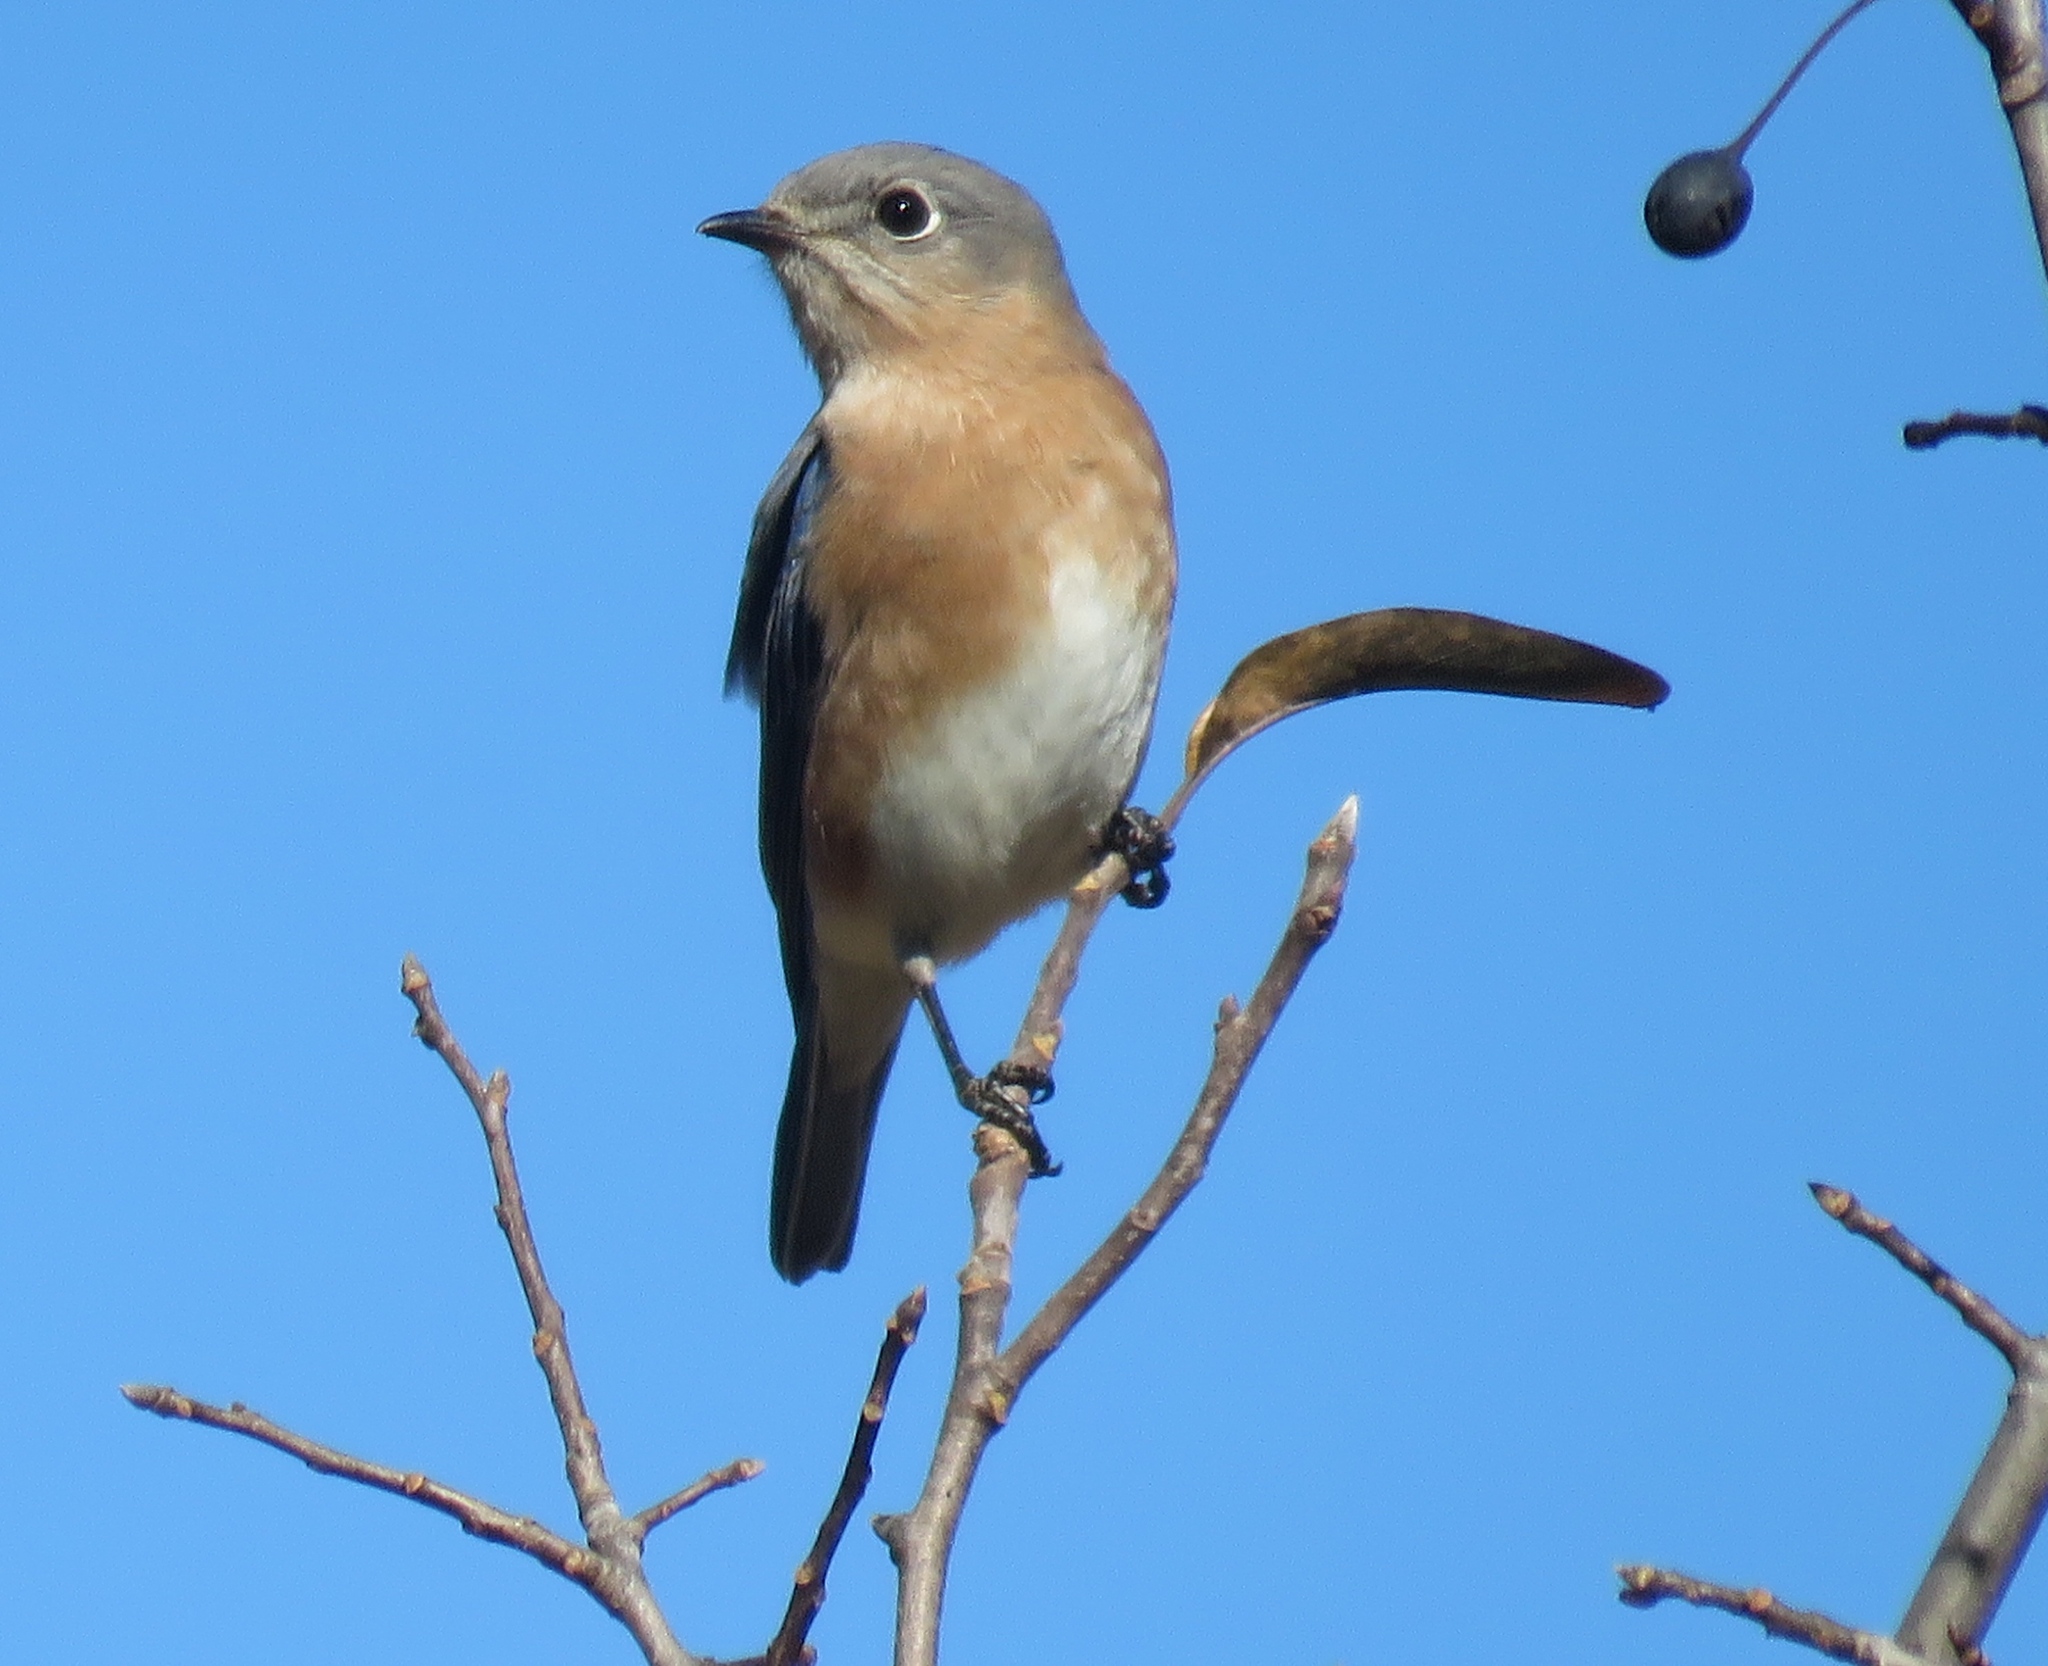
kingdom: Animalia
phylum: Chordata
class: Aves
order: Passeriformes
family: Turdidae
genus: Sialia
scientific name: Sialia sialis
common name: Eastern bluebird
